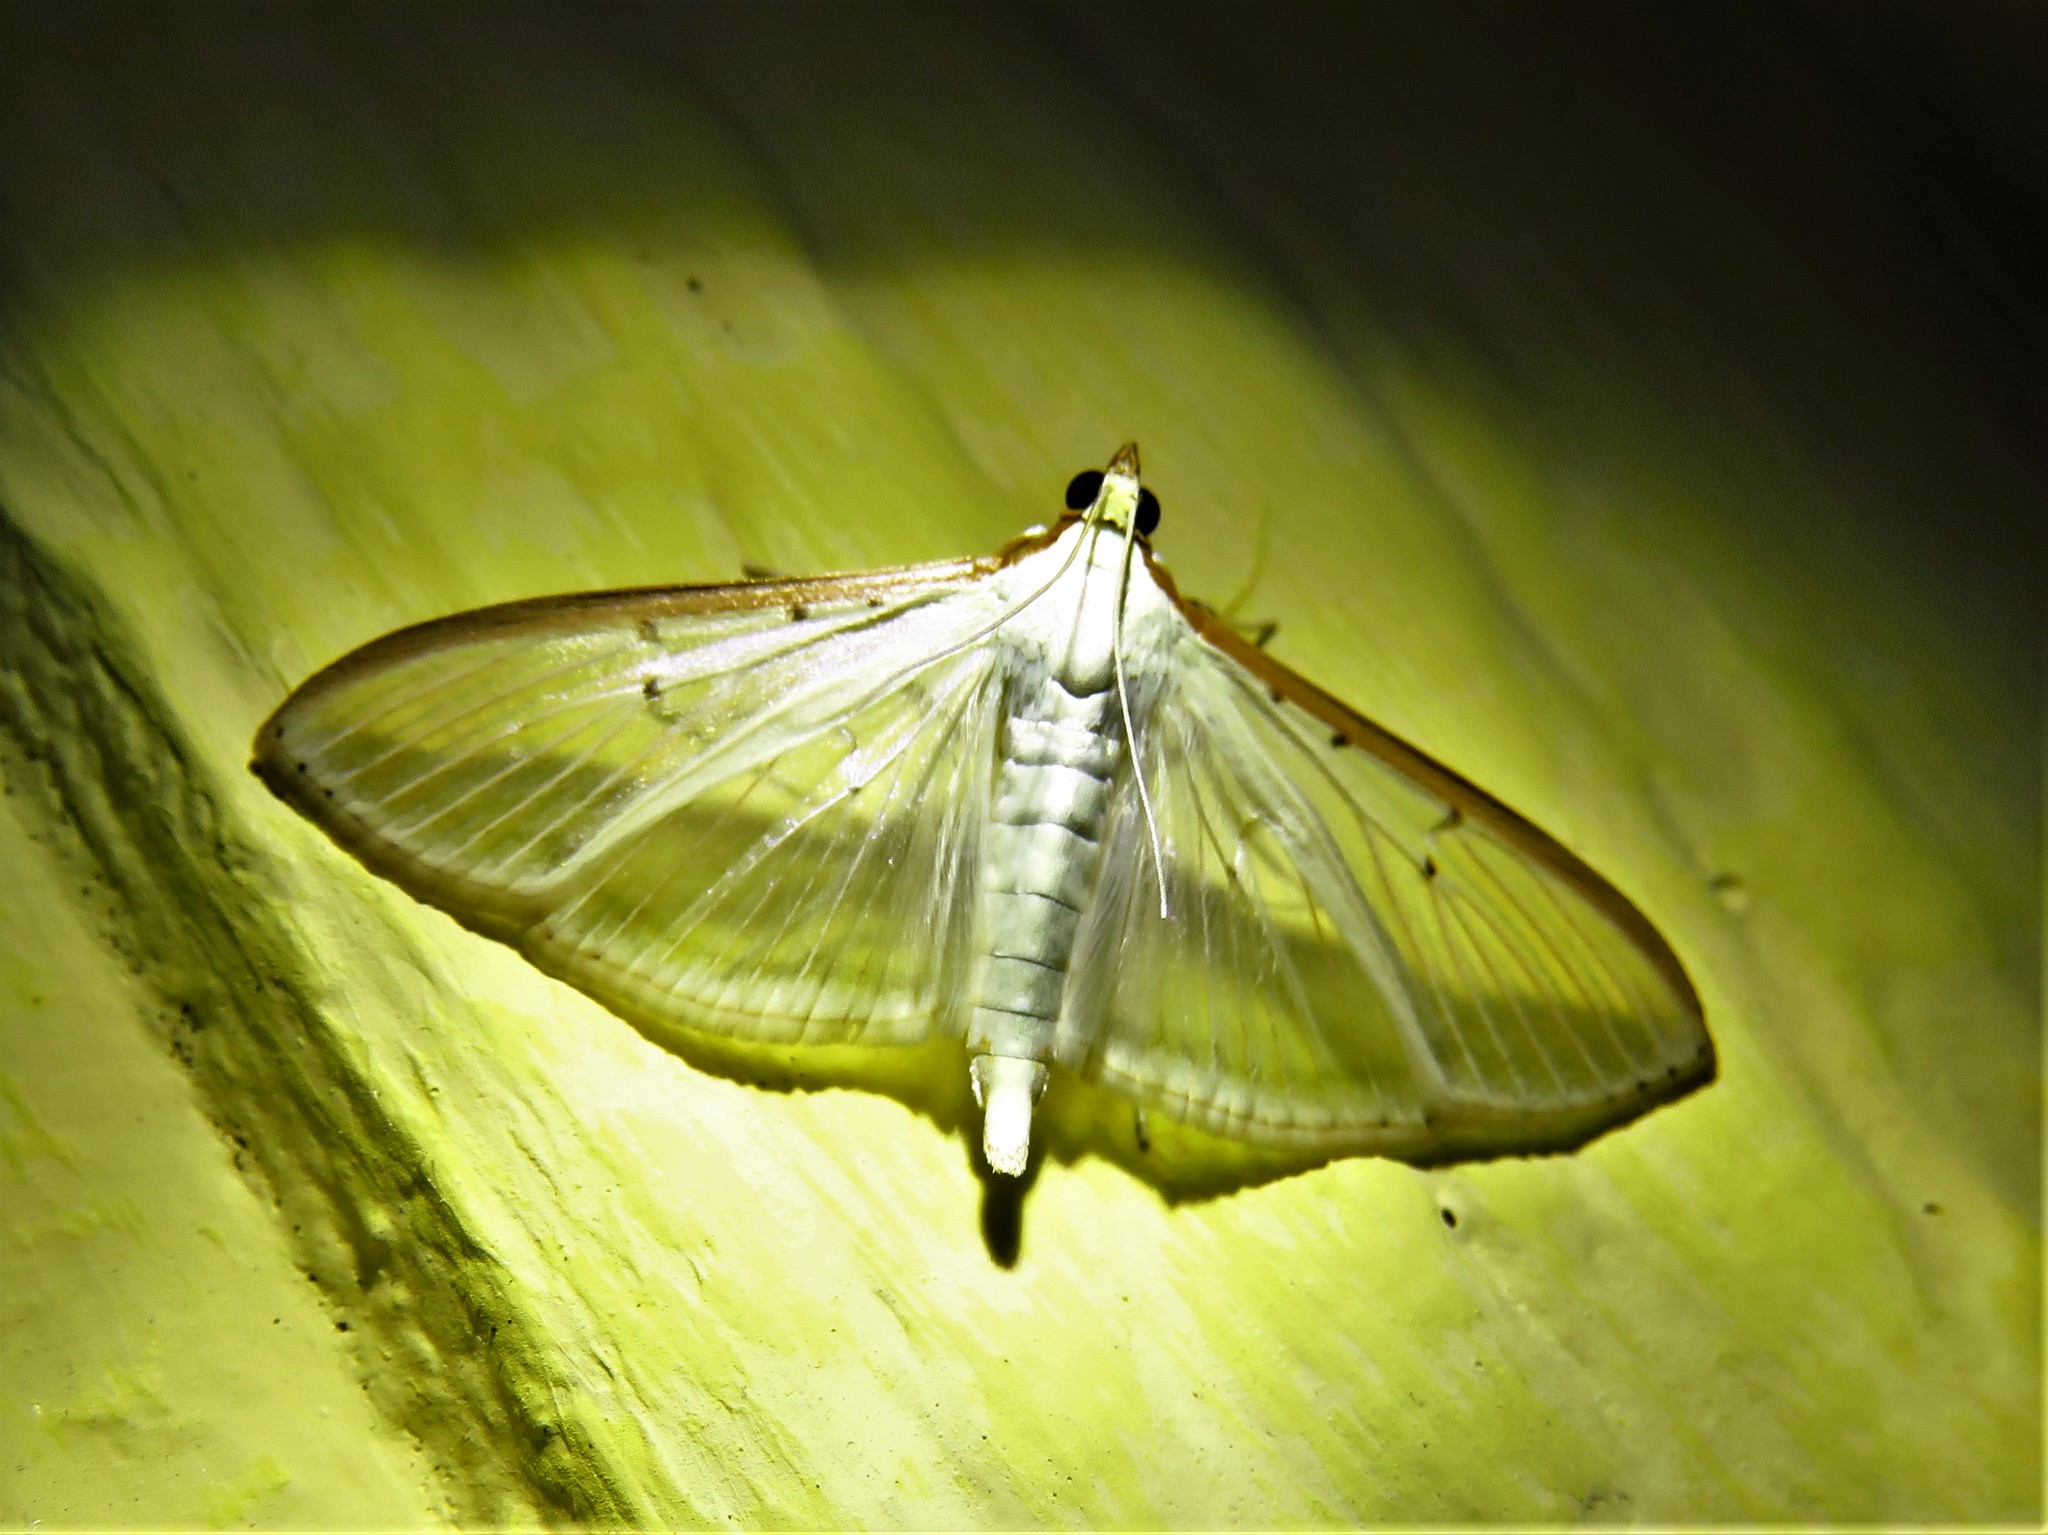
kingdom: Animalia
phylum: Arthropoda
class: Insecta
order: Lepidoptera
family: Crambidae
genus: Palpita
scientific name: Palpita quadristigmalis
